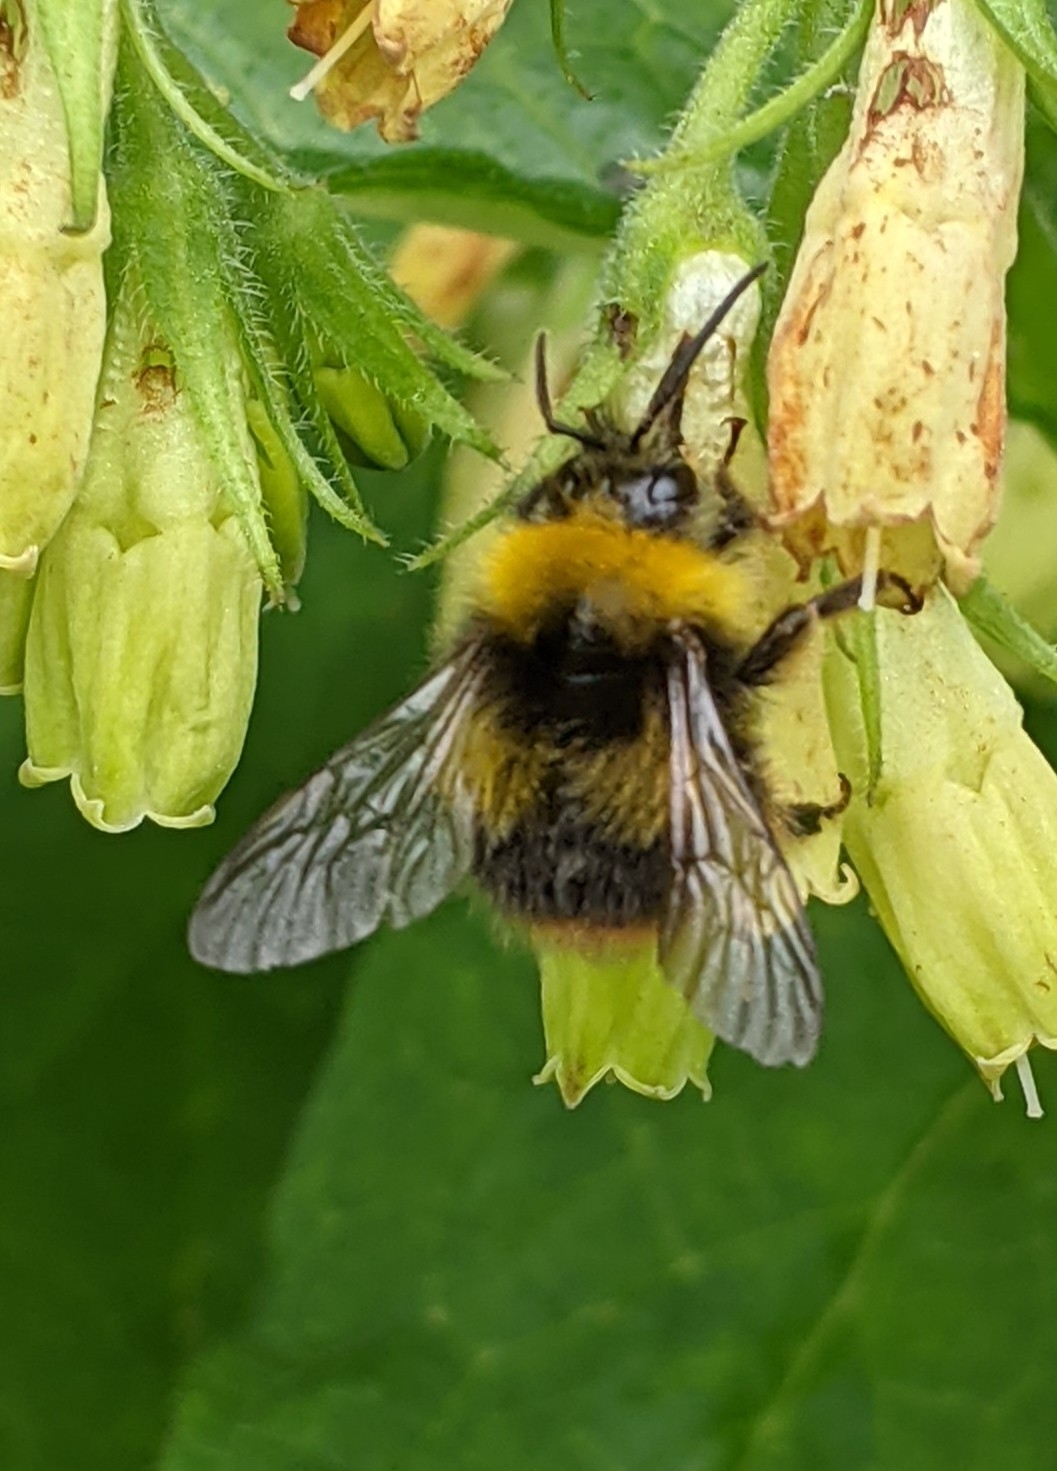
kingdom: Animalia
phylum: Arthropoda
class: Insecta
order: Hymenoptera
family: Apidae
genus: Bombus
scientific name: Bombus pratorum
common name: Early humble-bee
